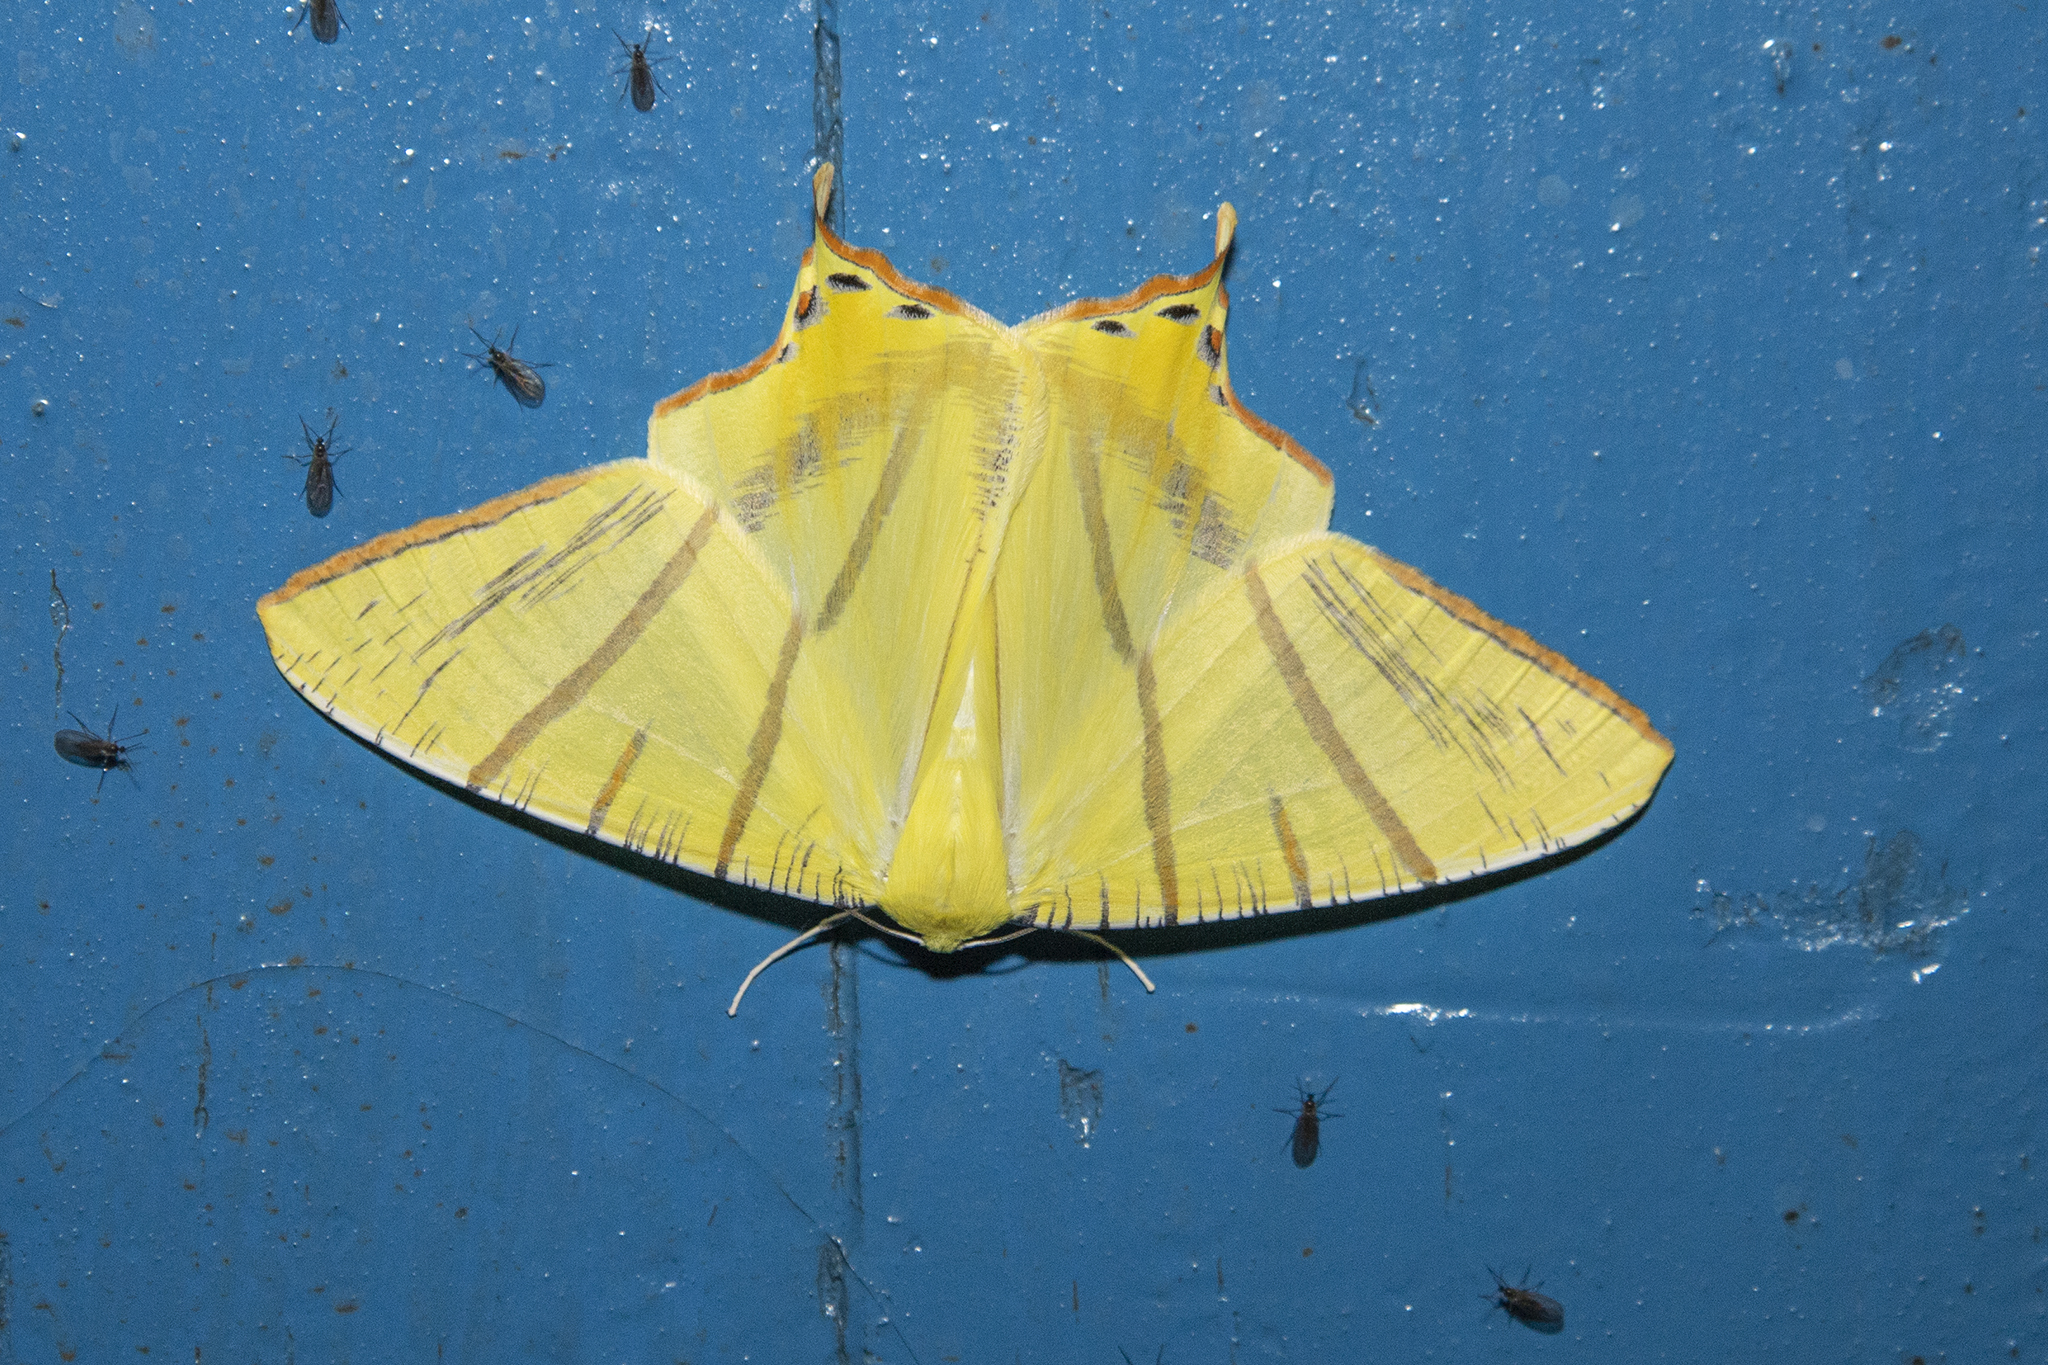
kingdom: Animalia
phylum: Arthropoda
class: Insecta
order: Lepidoptera
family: Geometridae
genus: Ourapteryx
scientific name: Ourapteryx primularis
